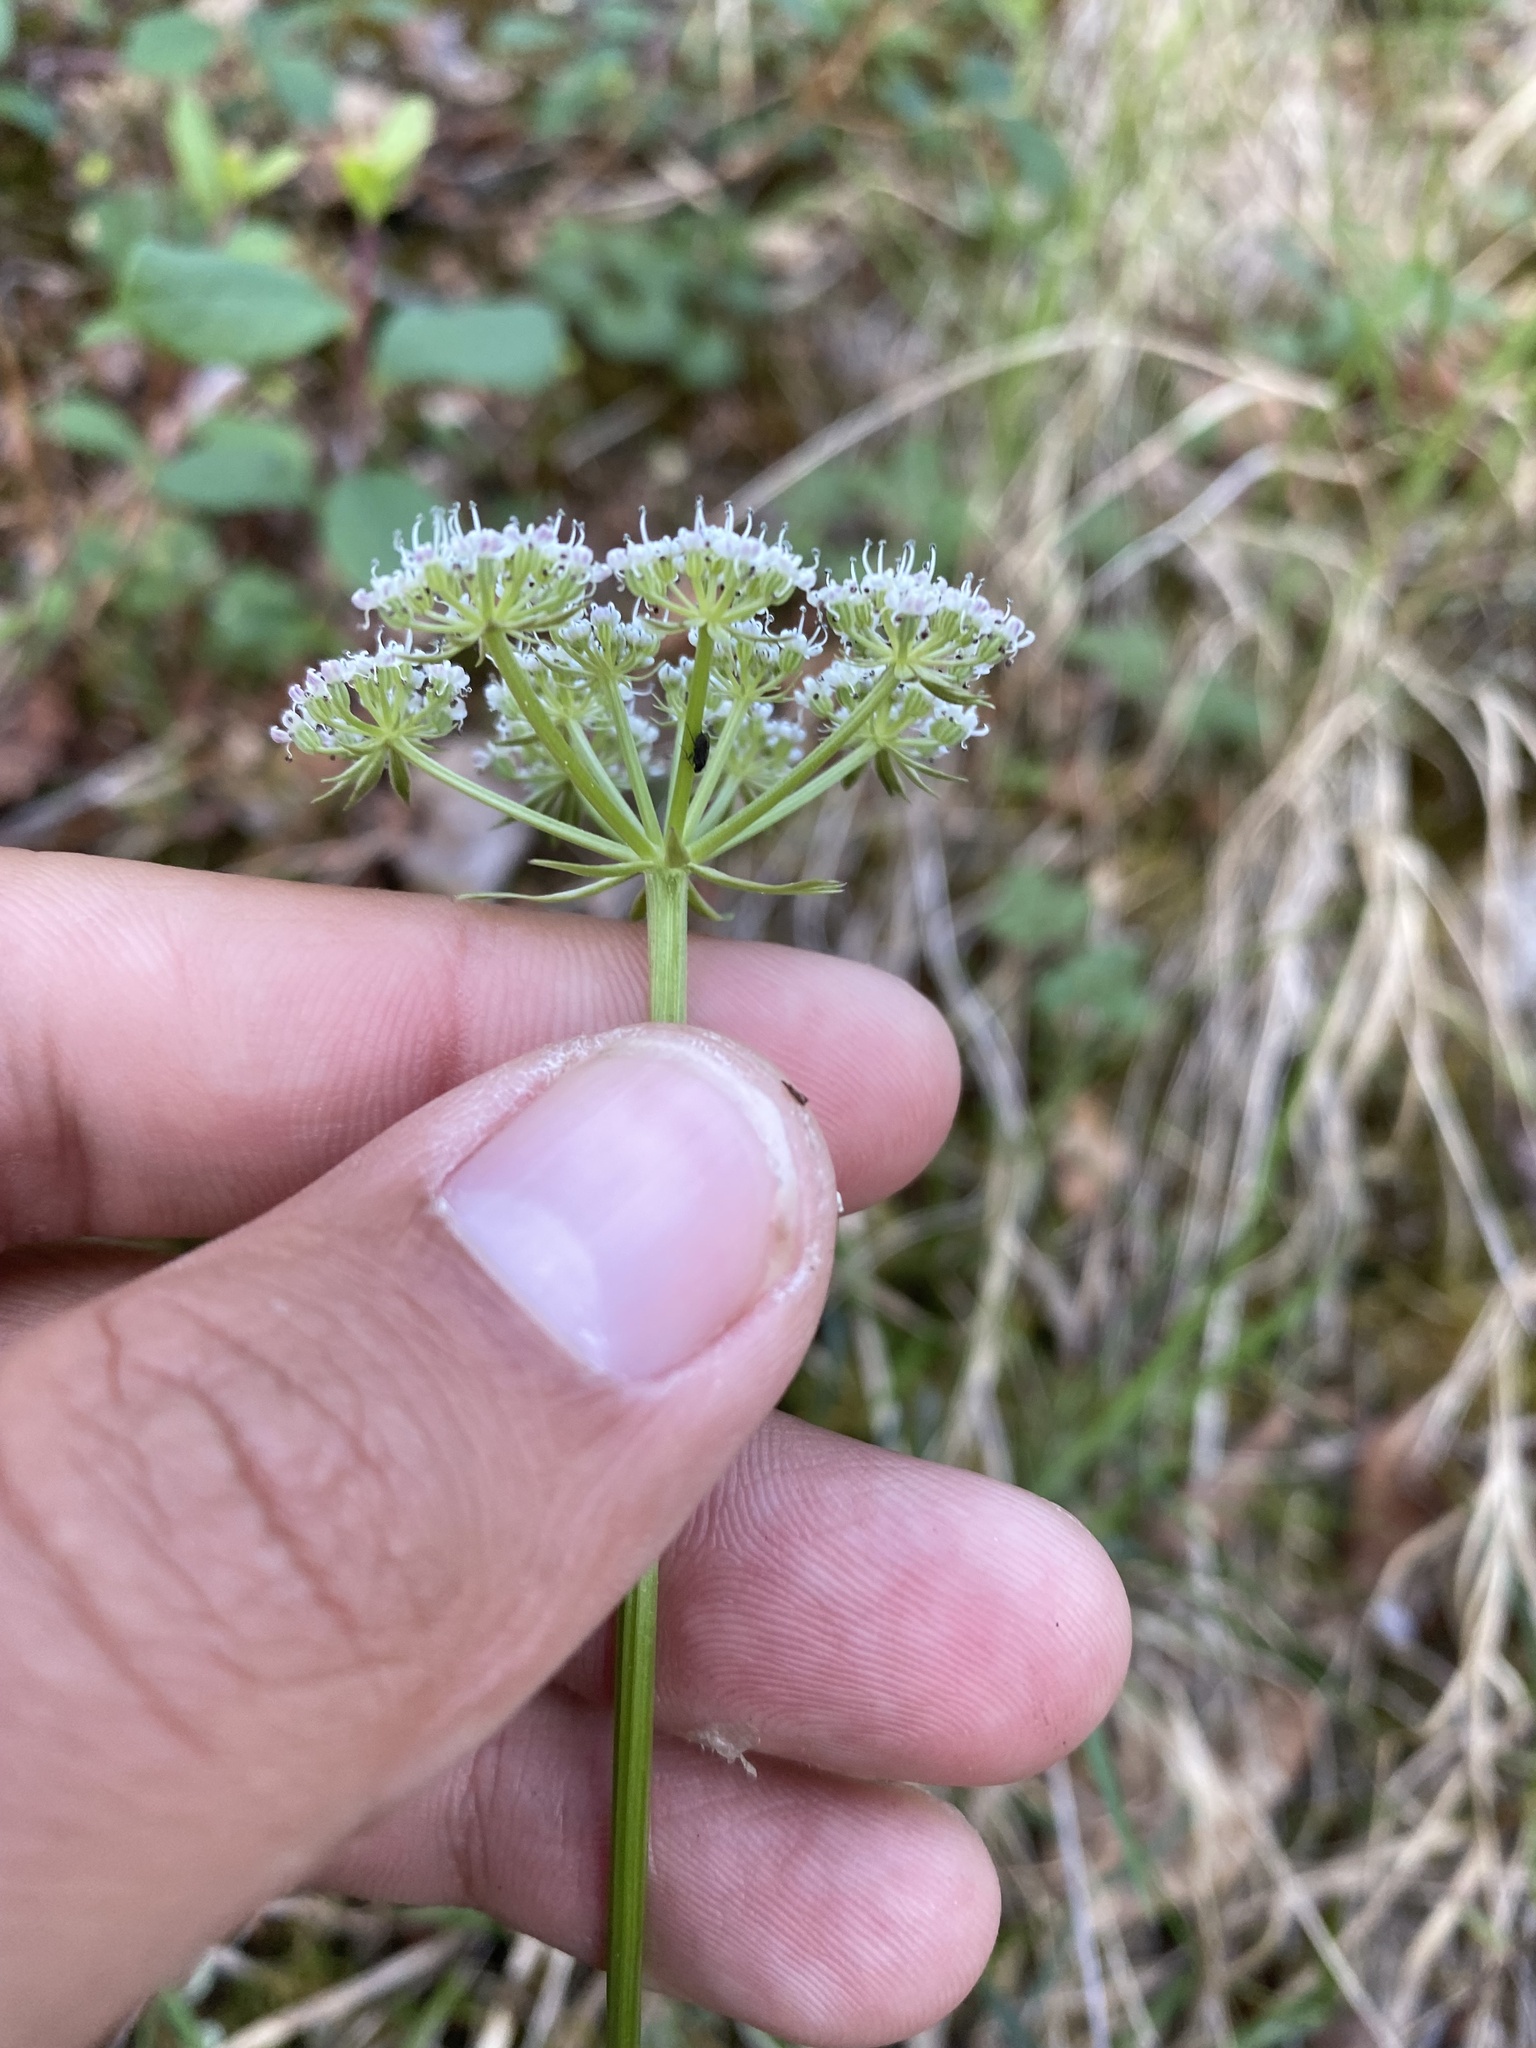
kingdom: Plantae
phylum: Tracheophyta
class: Magnoliopsida
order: Apiales
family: Apiaceae
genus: Ostericum
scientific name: Ostericum tenuifolium
